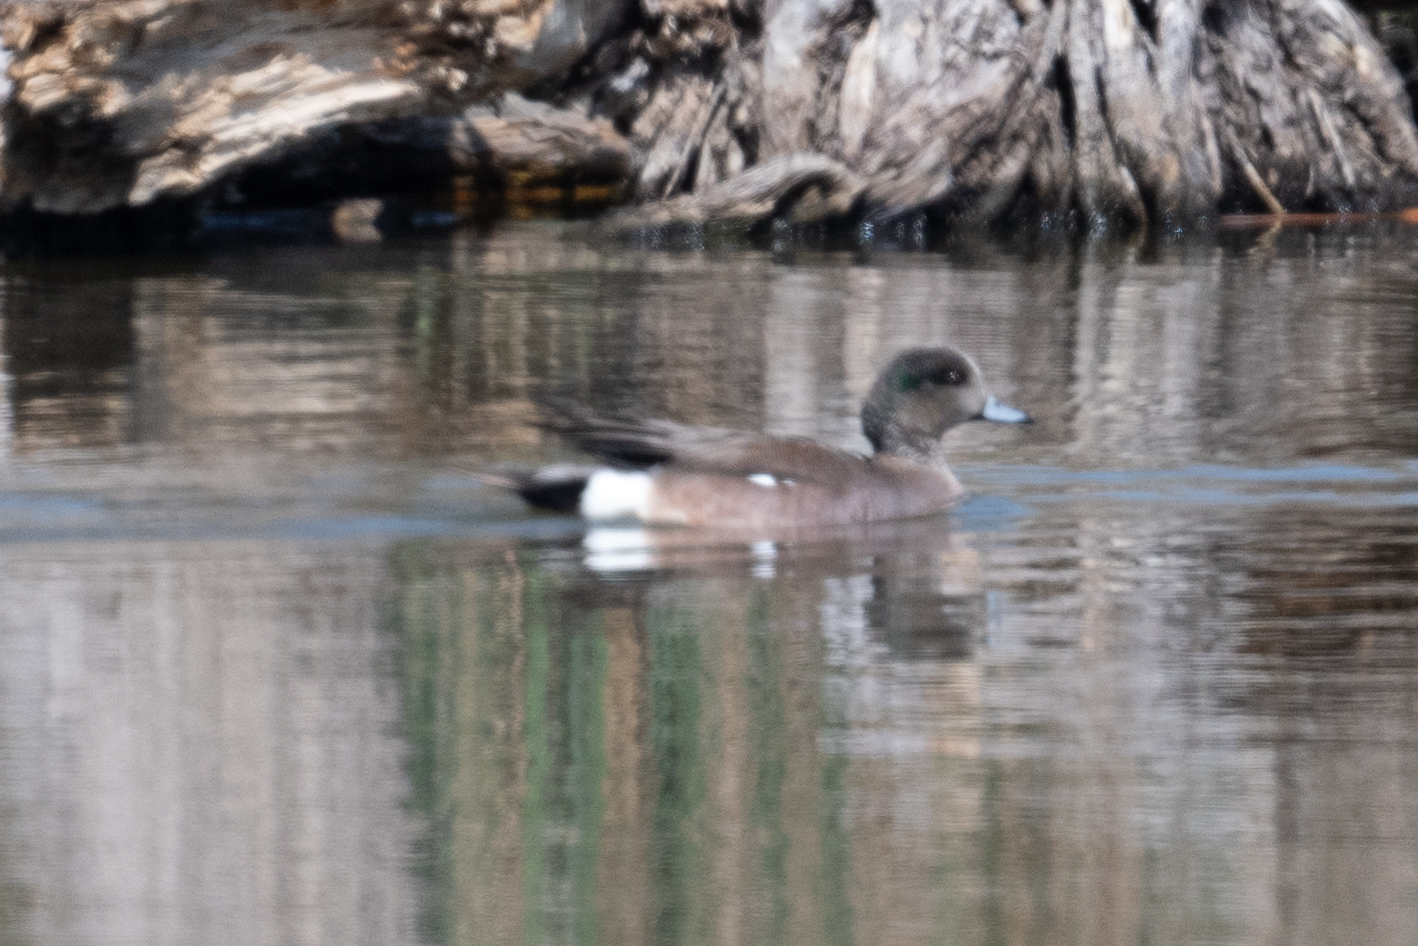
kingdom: Animalia
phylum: Chordata
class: Aves
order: Anseriformes
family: Anatidae
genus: Mareca
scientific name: Mareca americana
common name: American wigeon
